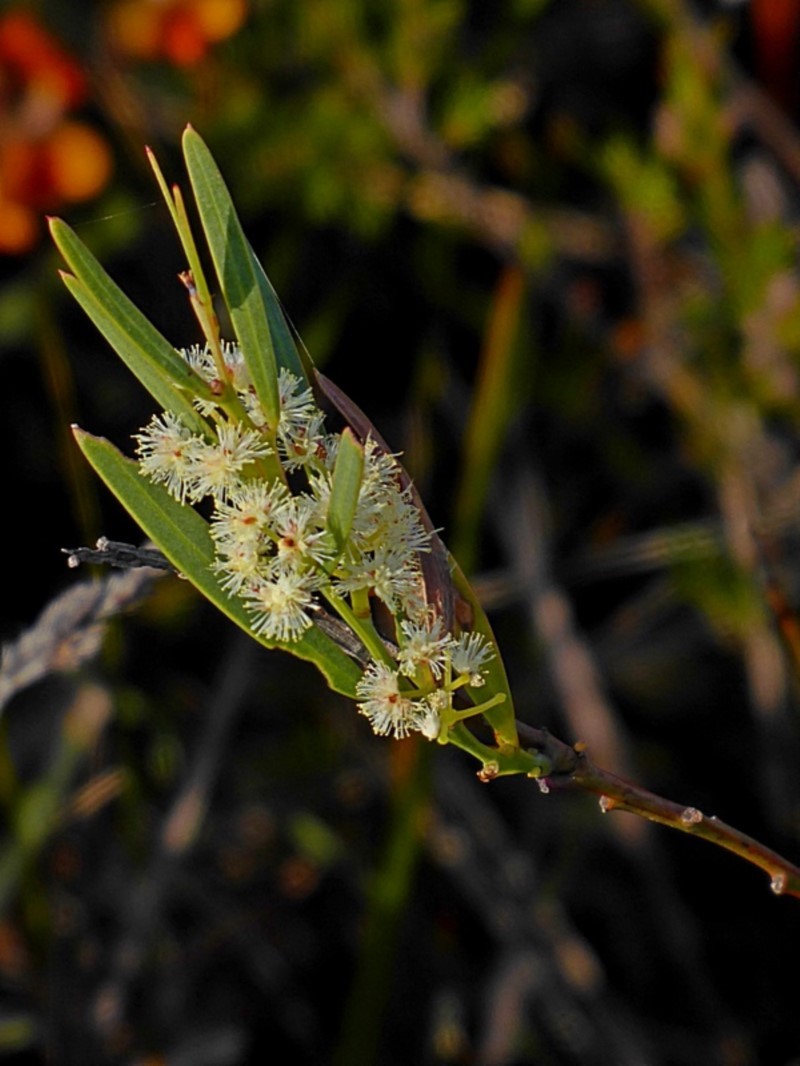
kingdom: Plantae
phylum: Tracheophyta
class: Magnoliopsida
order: Fabales
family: Fabaceae
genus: Acacia
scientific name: Acacia suaveolens
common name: Sweet acacia
